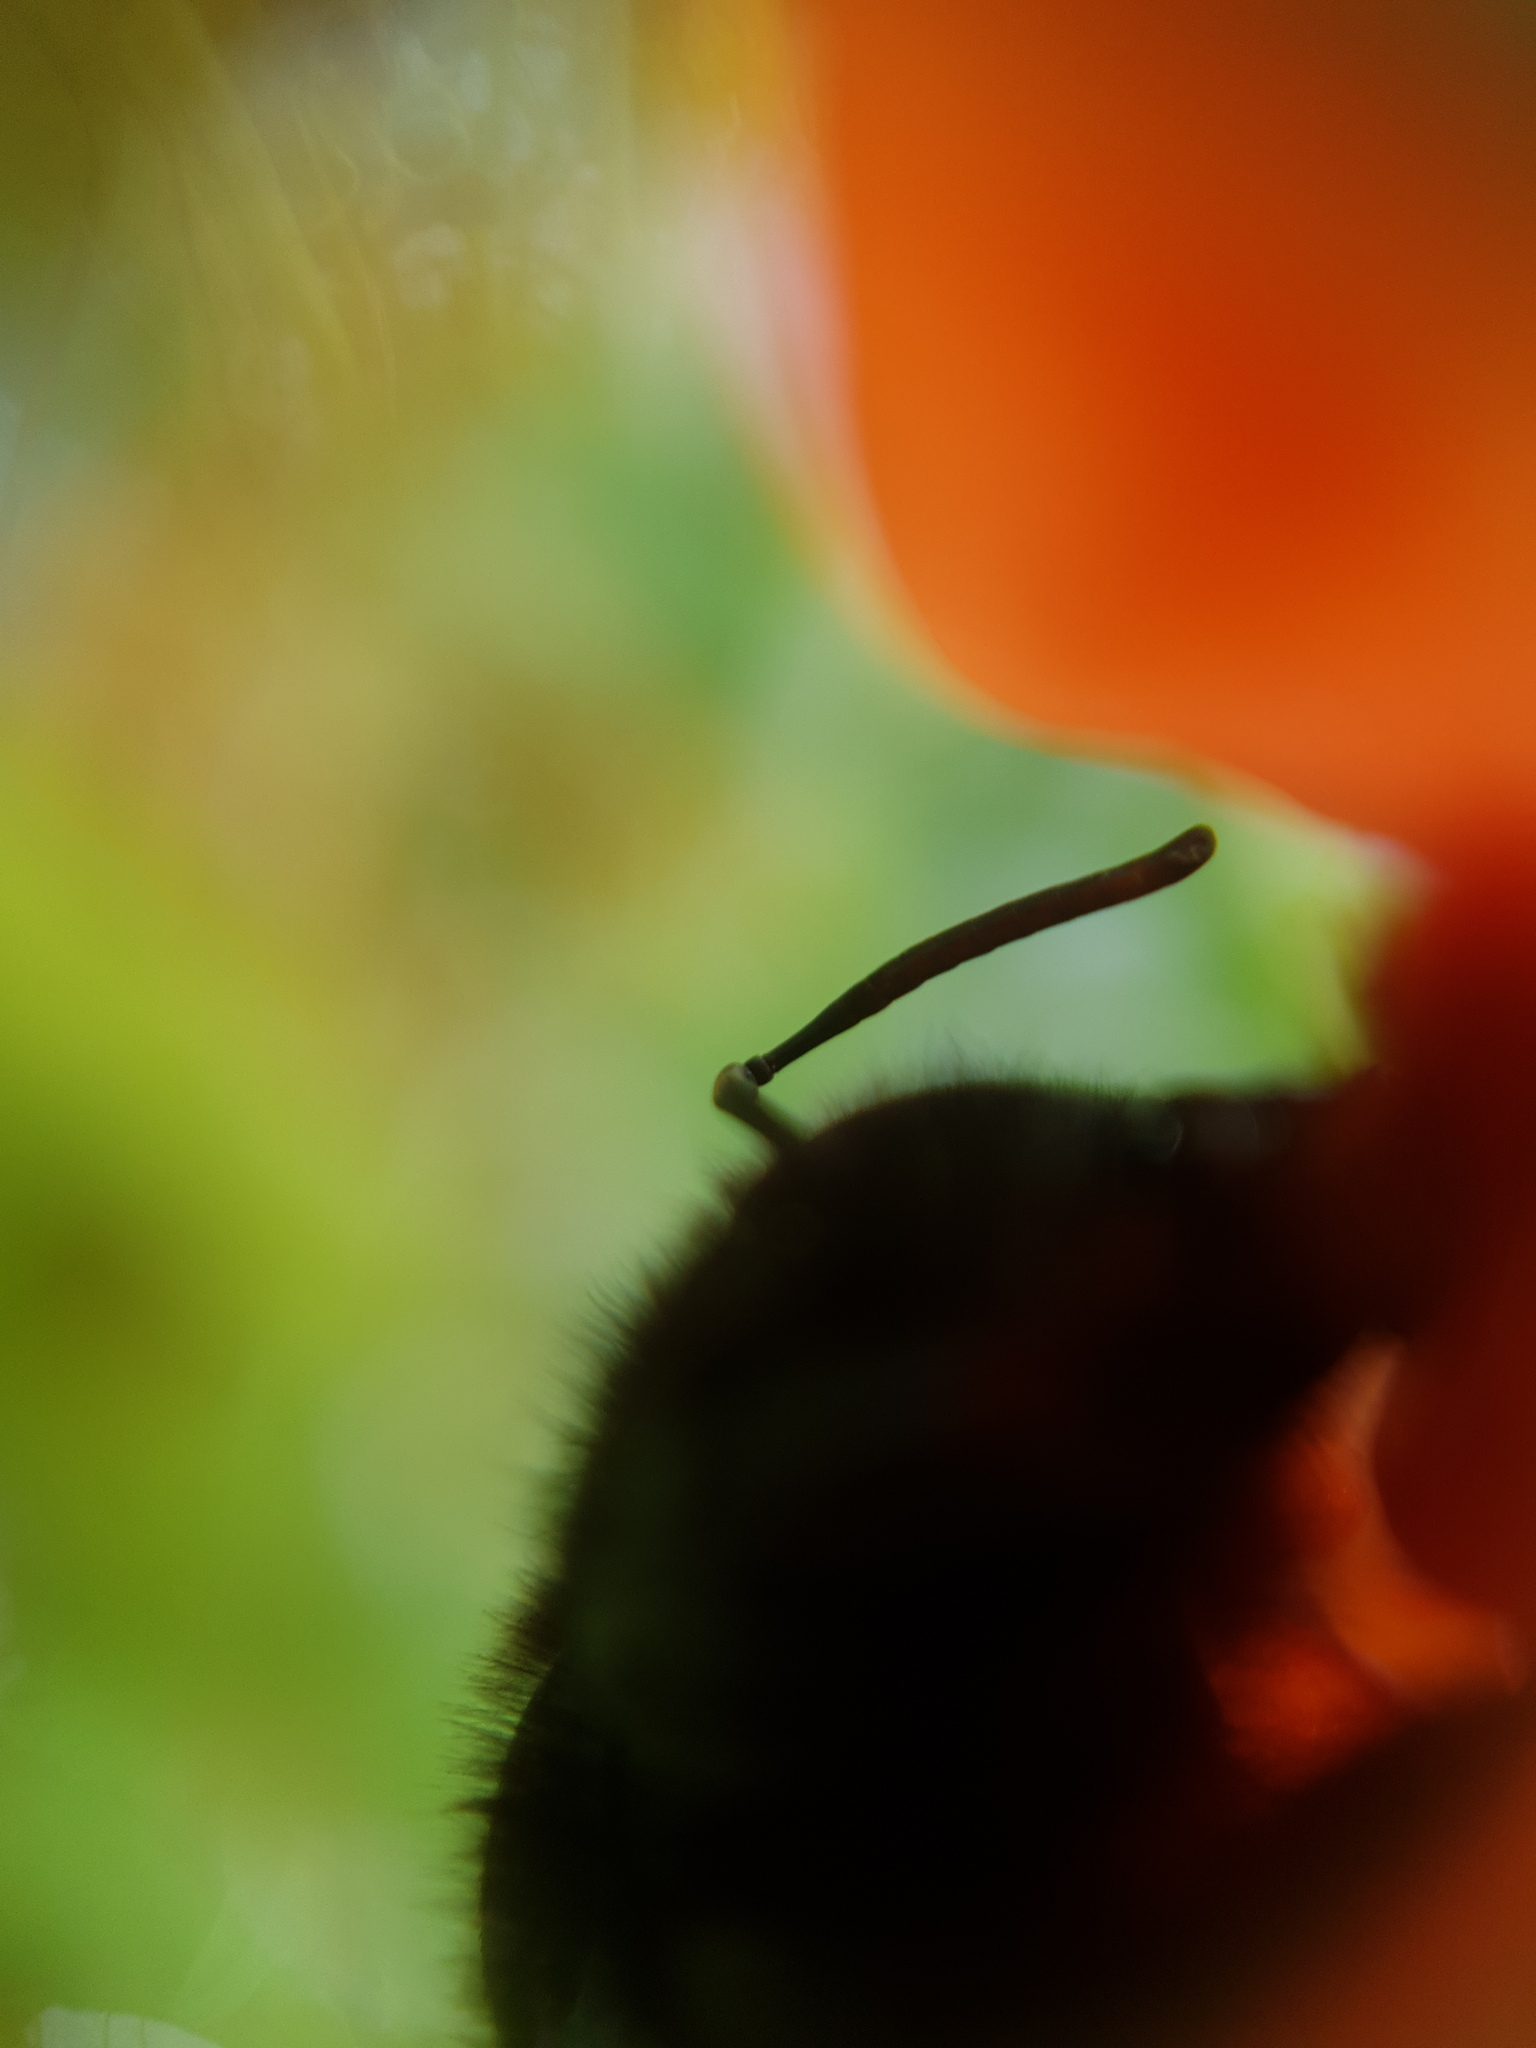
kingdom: Animalia
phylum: Arthropoda
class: Insecta
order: Hymenoptera
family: Apidae
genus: Xylocopa
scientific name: Xylocopa violacea
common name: Violet carpenter bee
